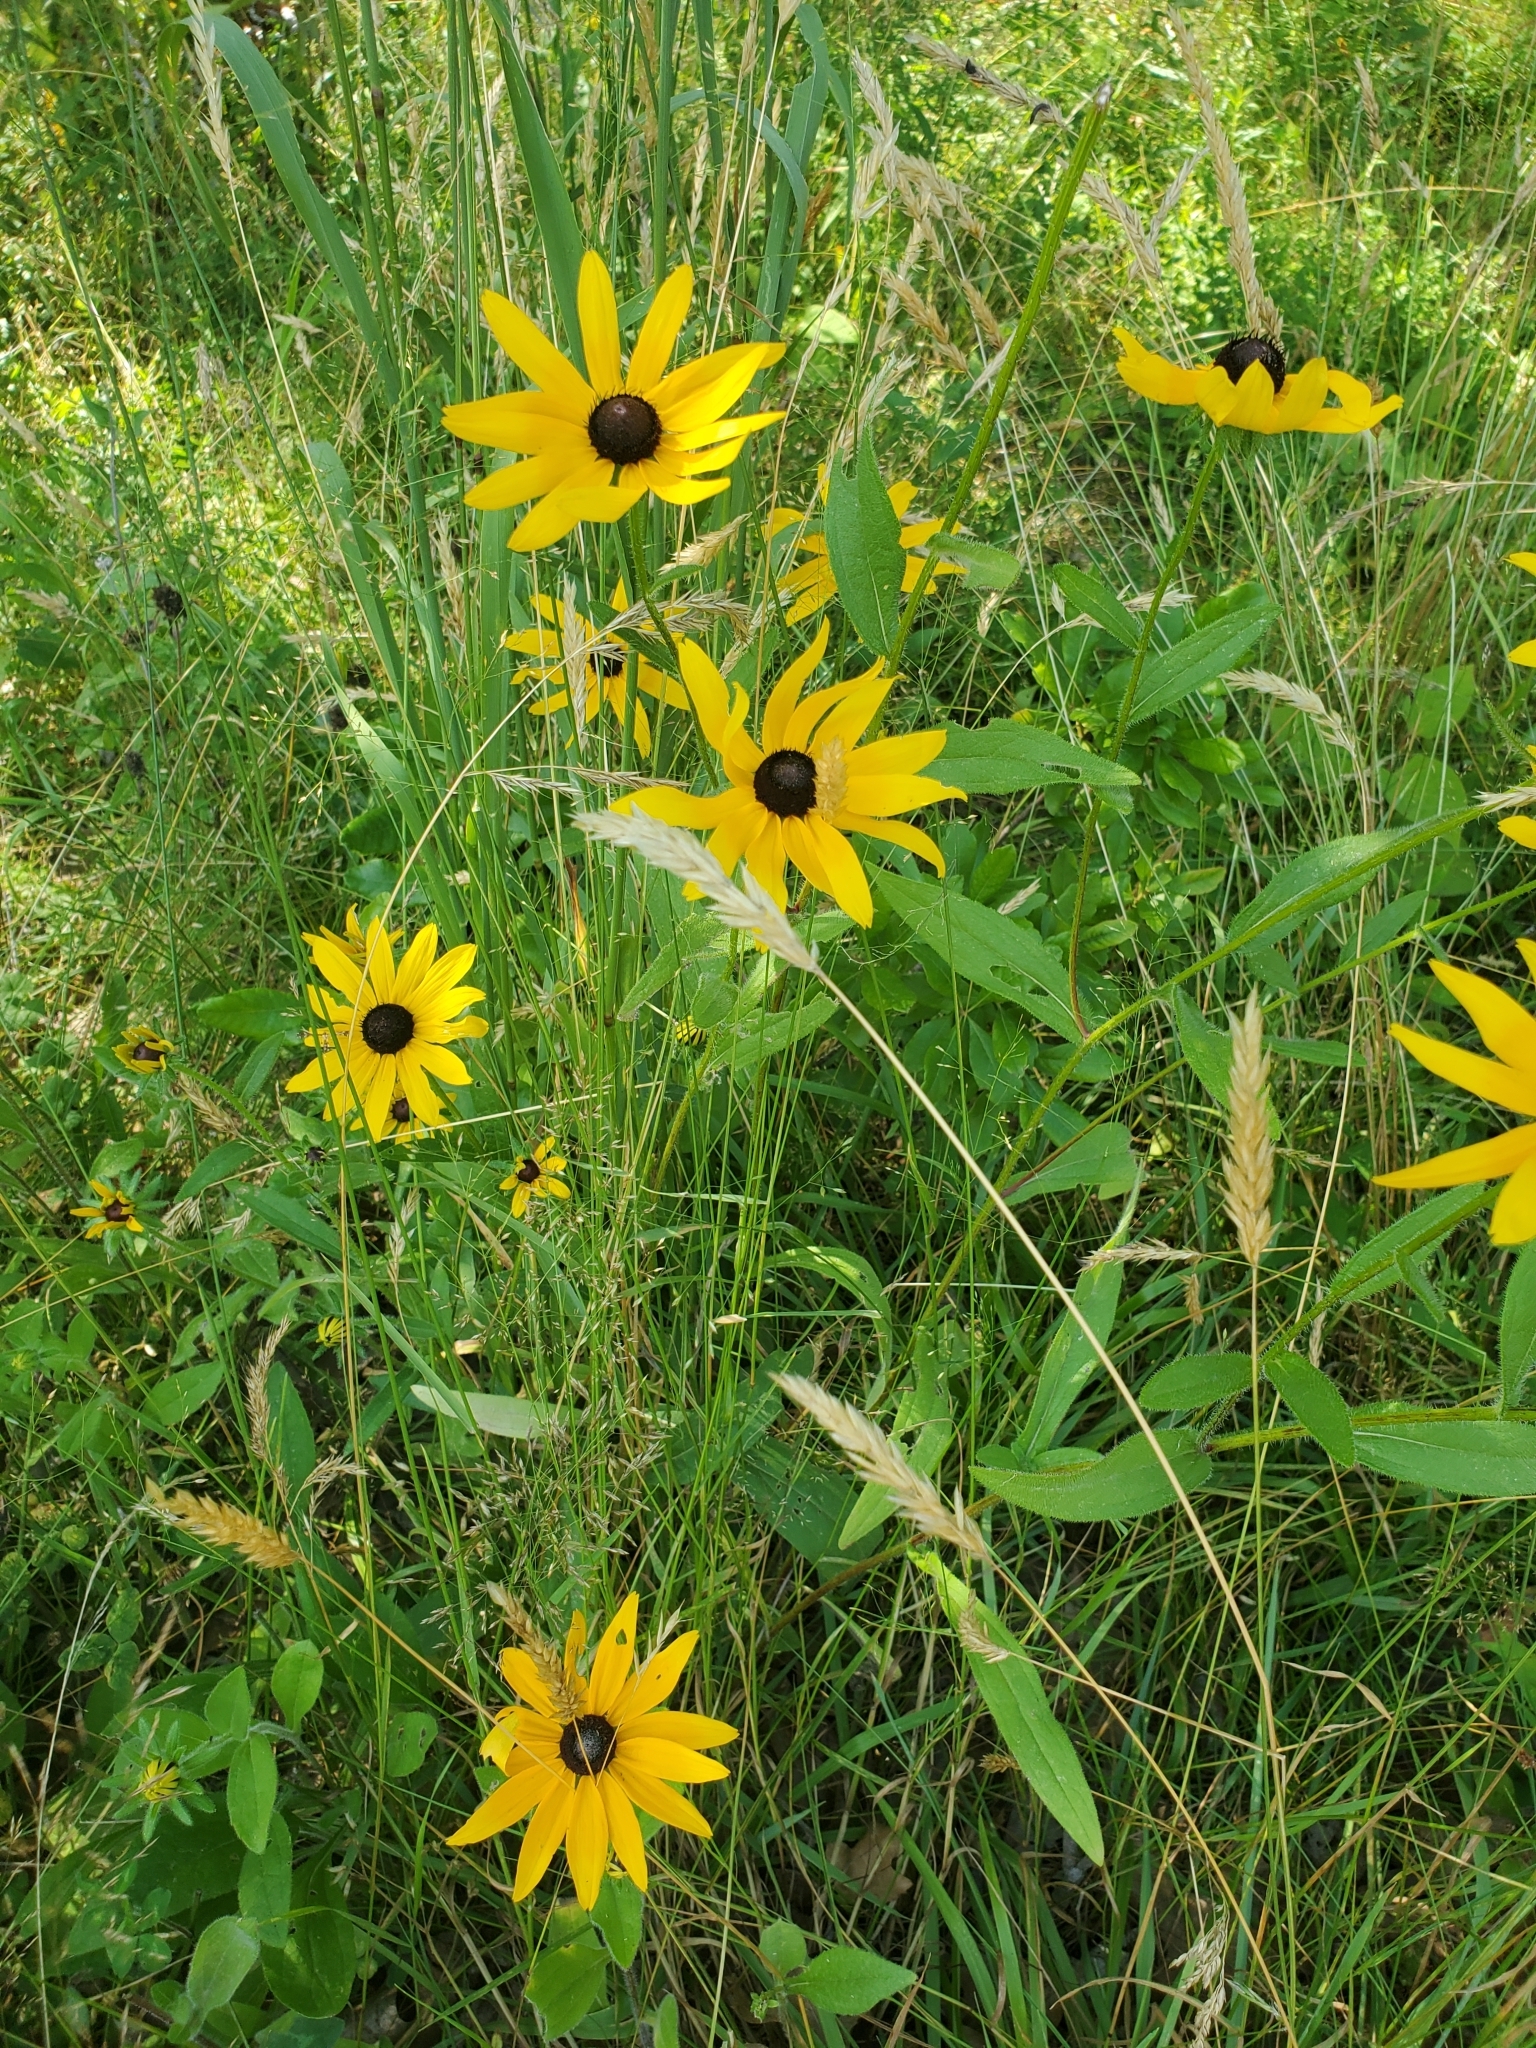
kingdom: Plantae
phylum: Tracheophyta
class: Magnoliopsida
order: Asterales
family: Asteraceae
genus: Rudbeckia
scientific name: Rudbeckia hirta
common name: Black-eyed-susan
